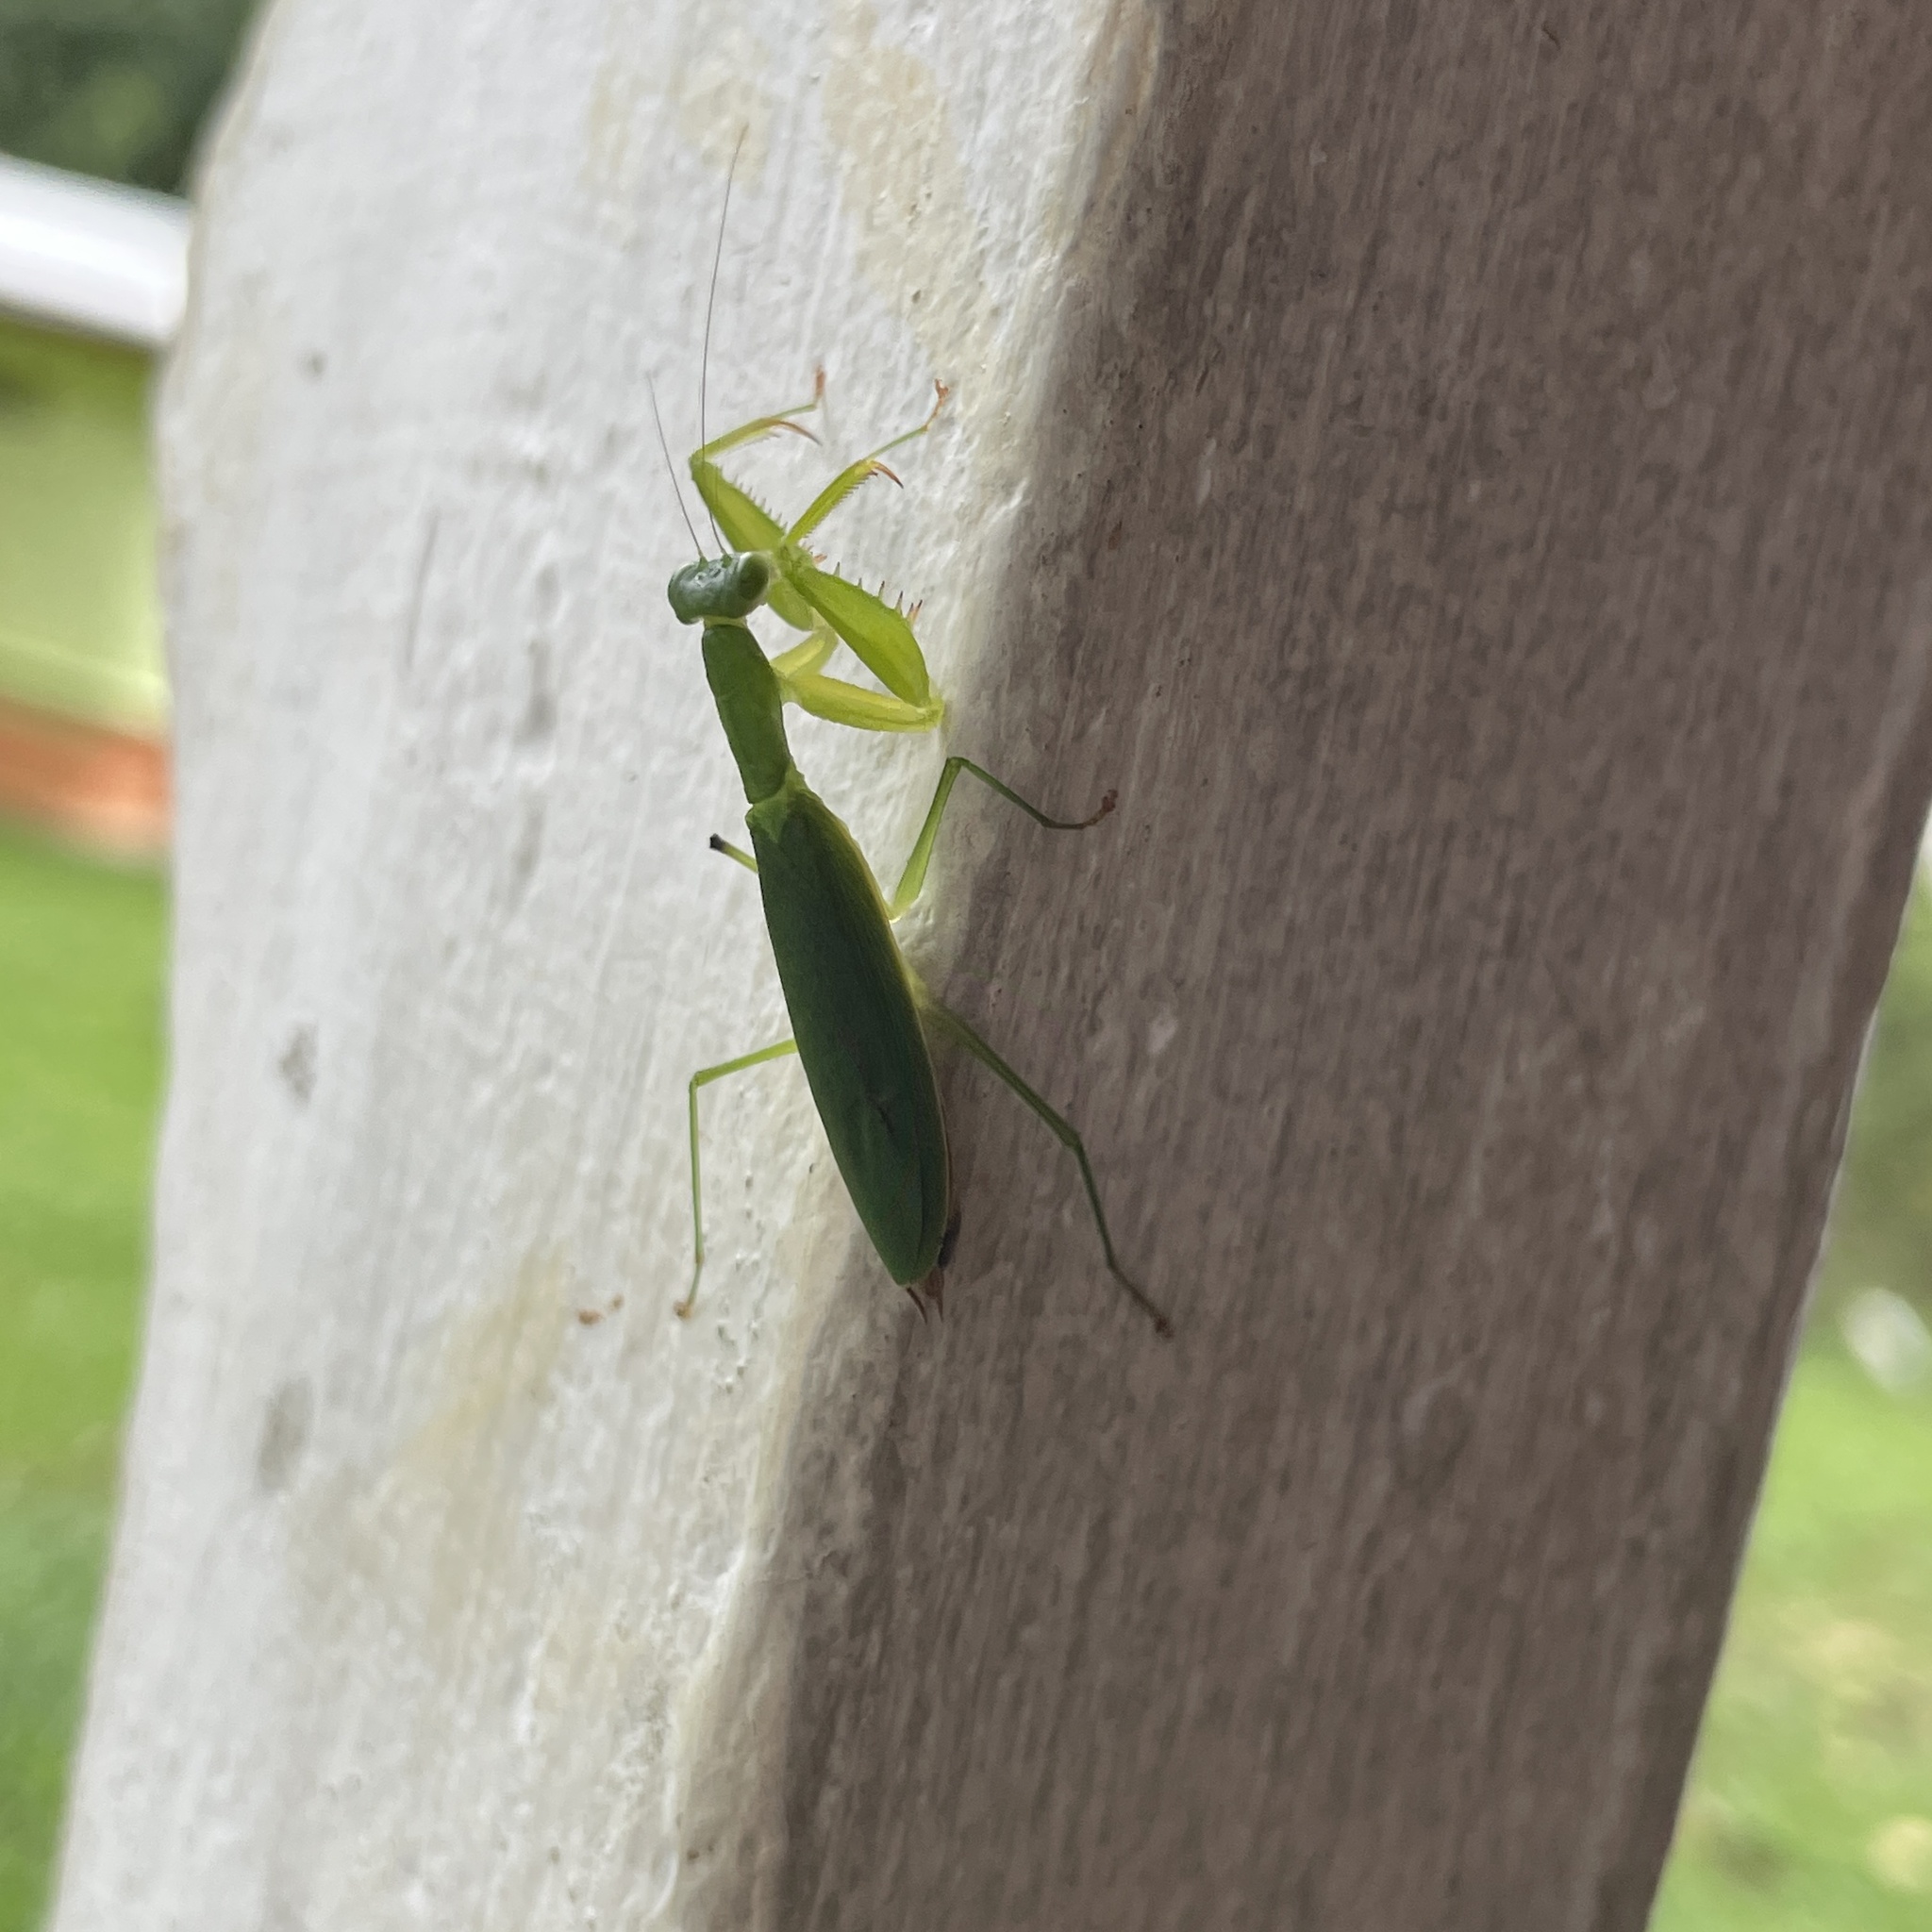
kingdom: Animalia
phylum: Arthropoda
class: Insecta
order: Mantodea
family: Acanthopidae
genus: Tithrone
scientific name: Tithrone roseipennis
